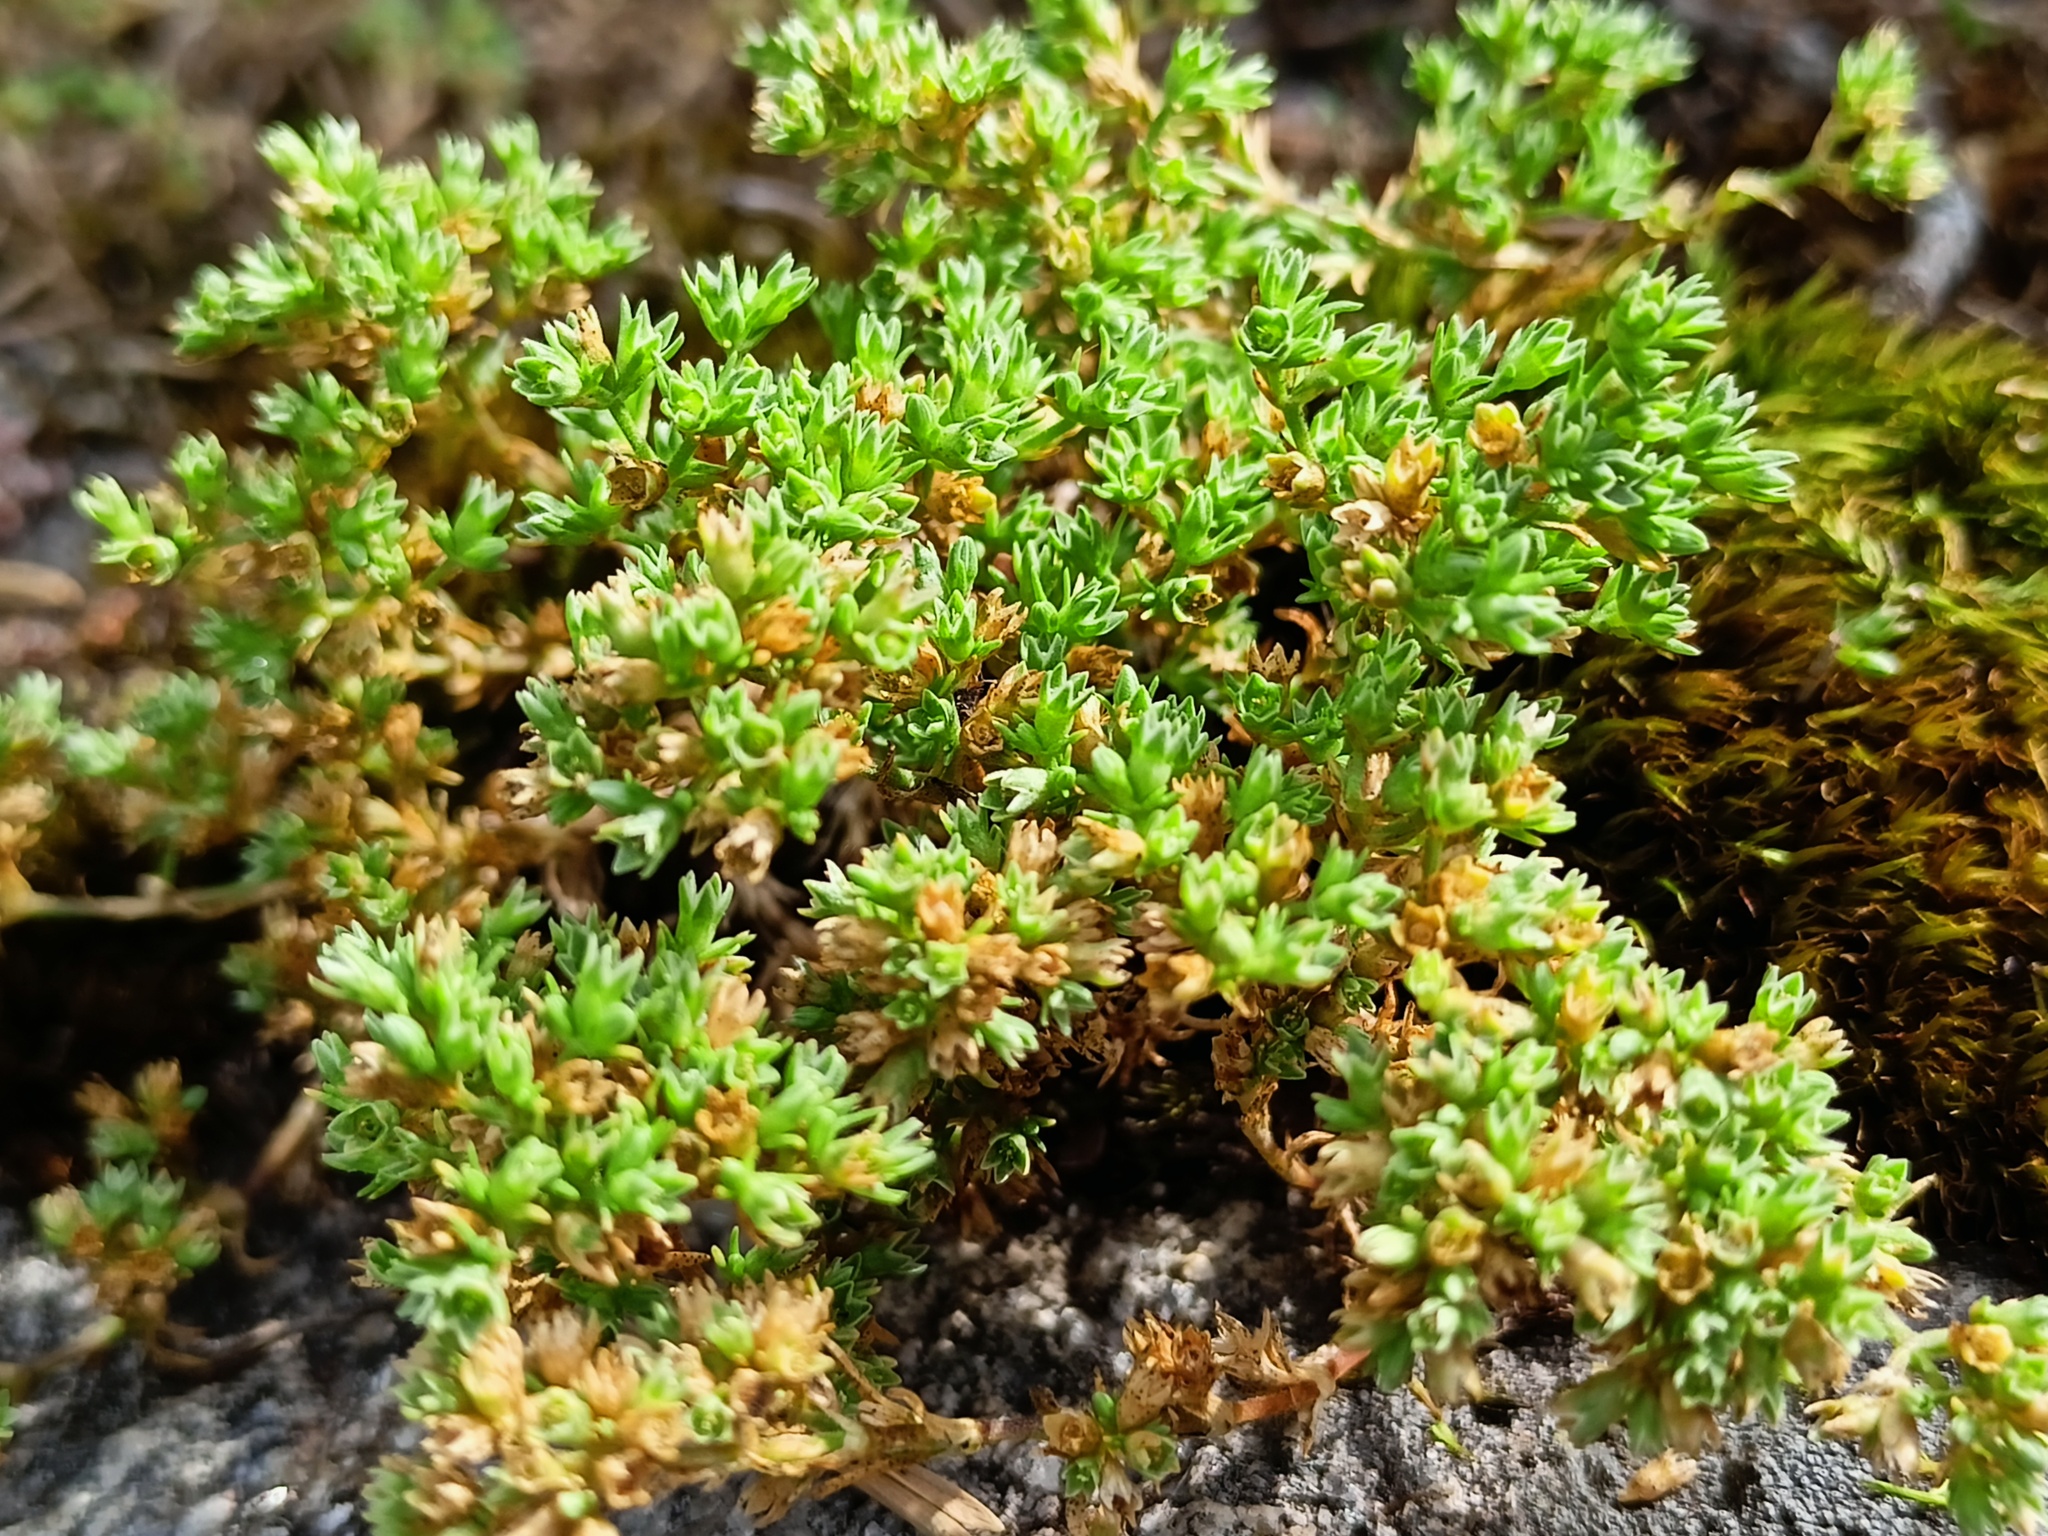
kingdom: Plantae
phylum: Tracheophyta
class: Magnoliopsida
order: Caryophyllales
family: Caryophyllaceae
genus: Scleranthus
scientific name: Scleranthus annuus
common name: Annual knawel
